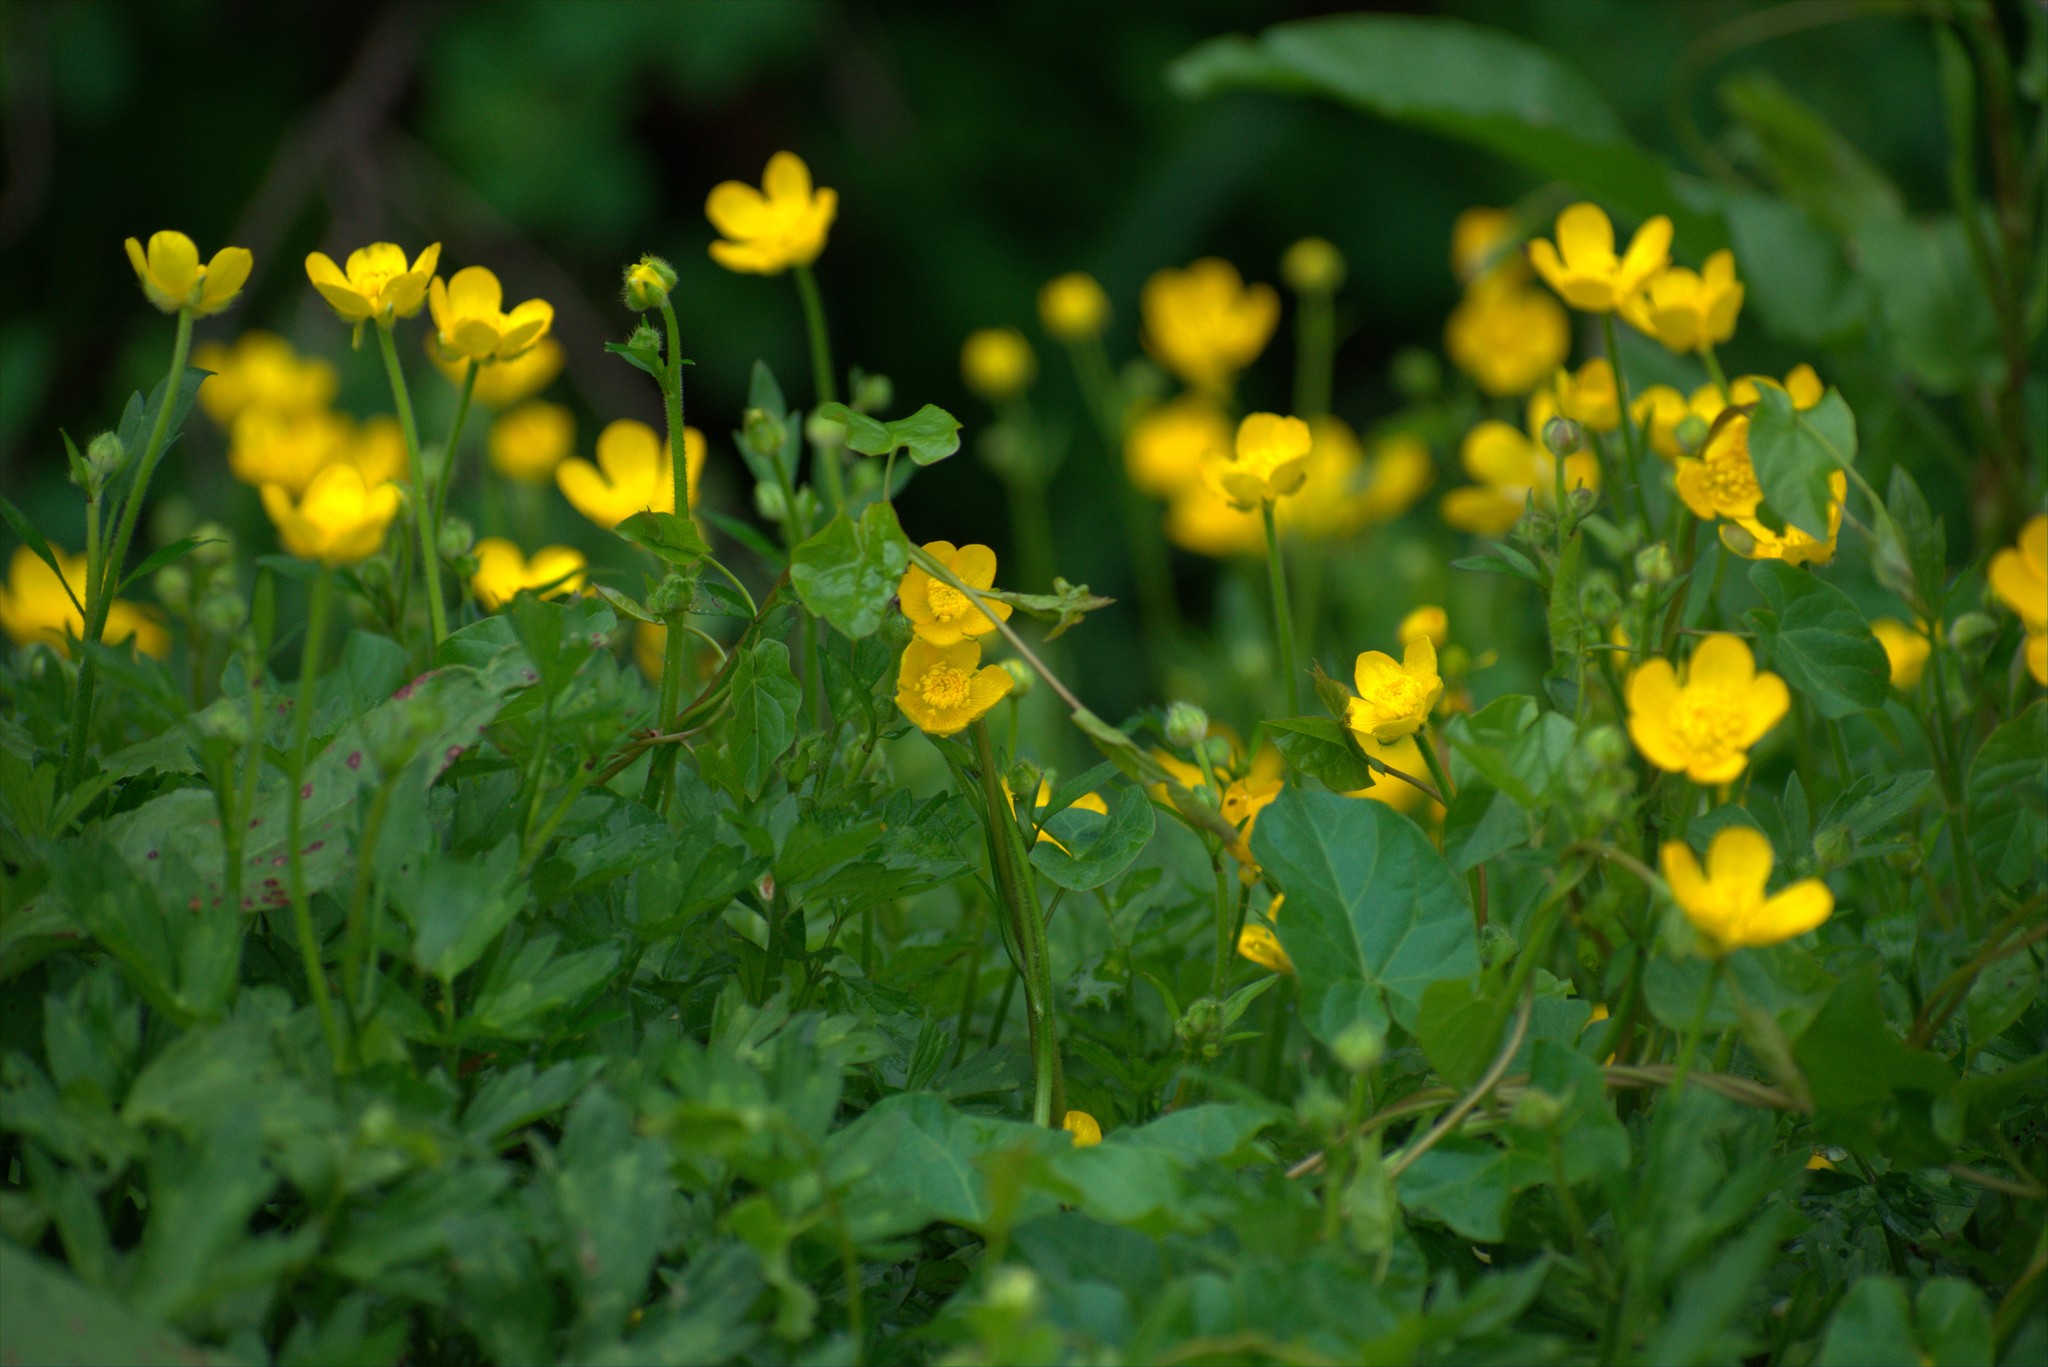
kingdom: Plantae
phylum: Tracheophyta
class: Magnoliopsida
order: Ranunculales
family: Ranunculaceae
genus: Ranunculus
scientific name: Ranunculus repens
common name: Creeping buttercup
